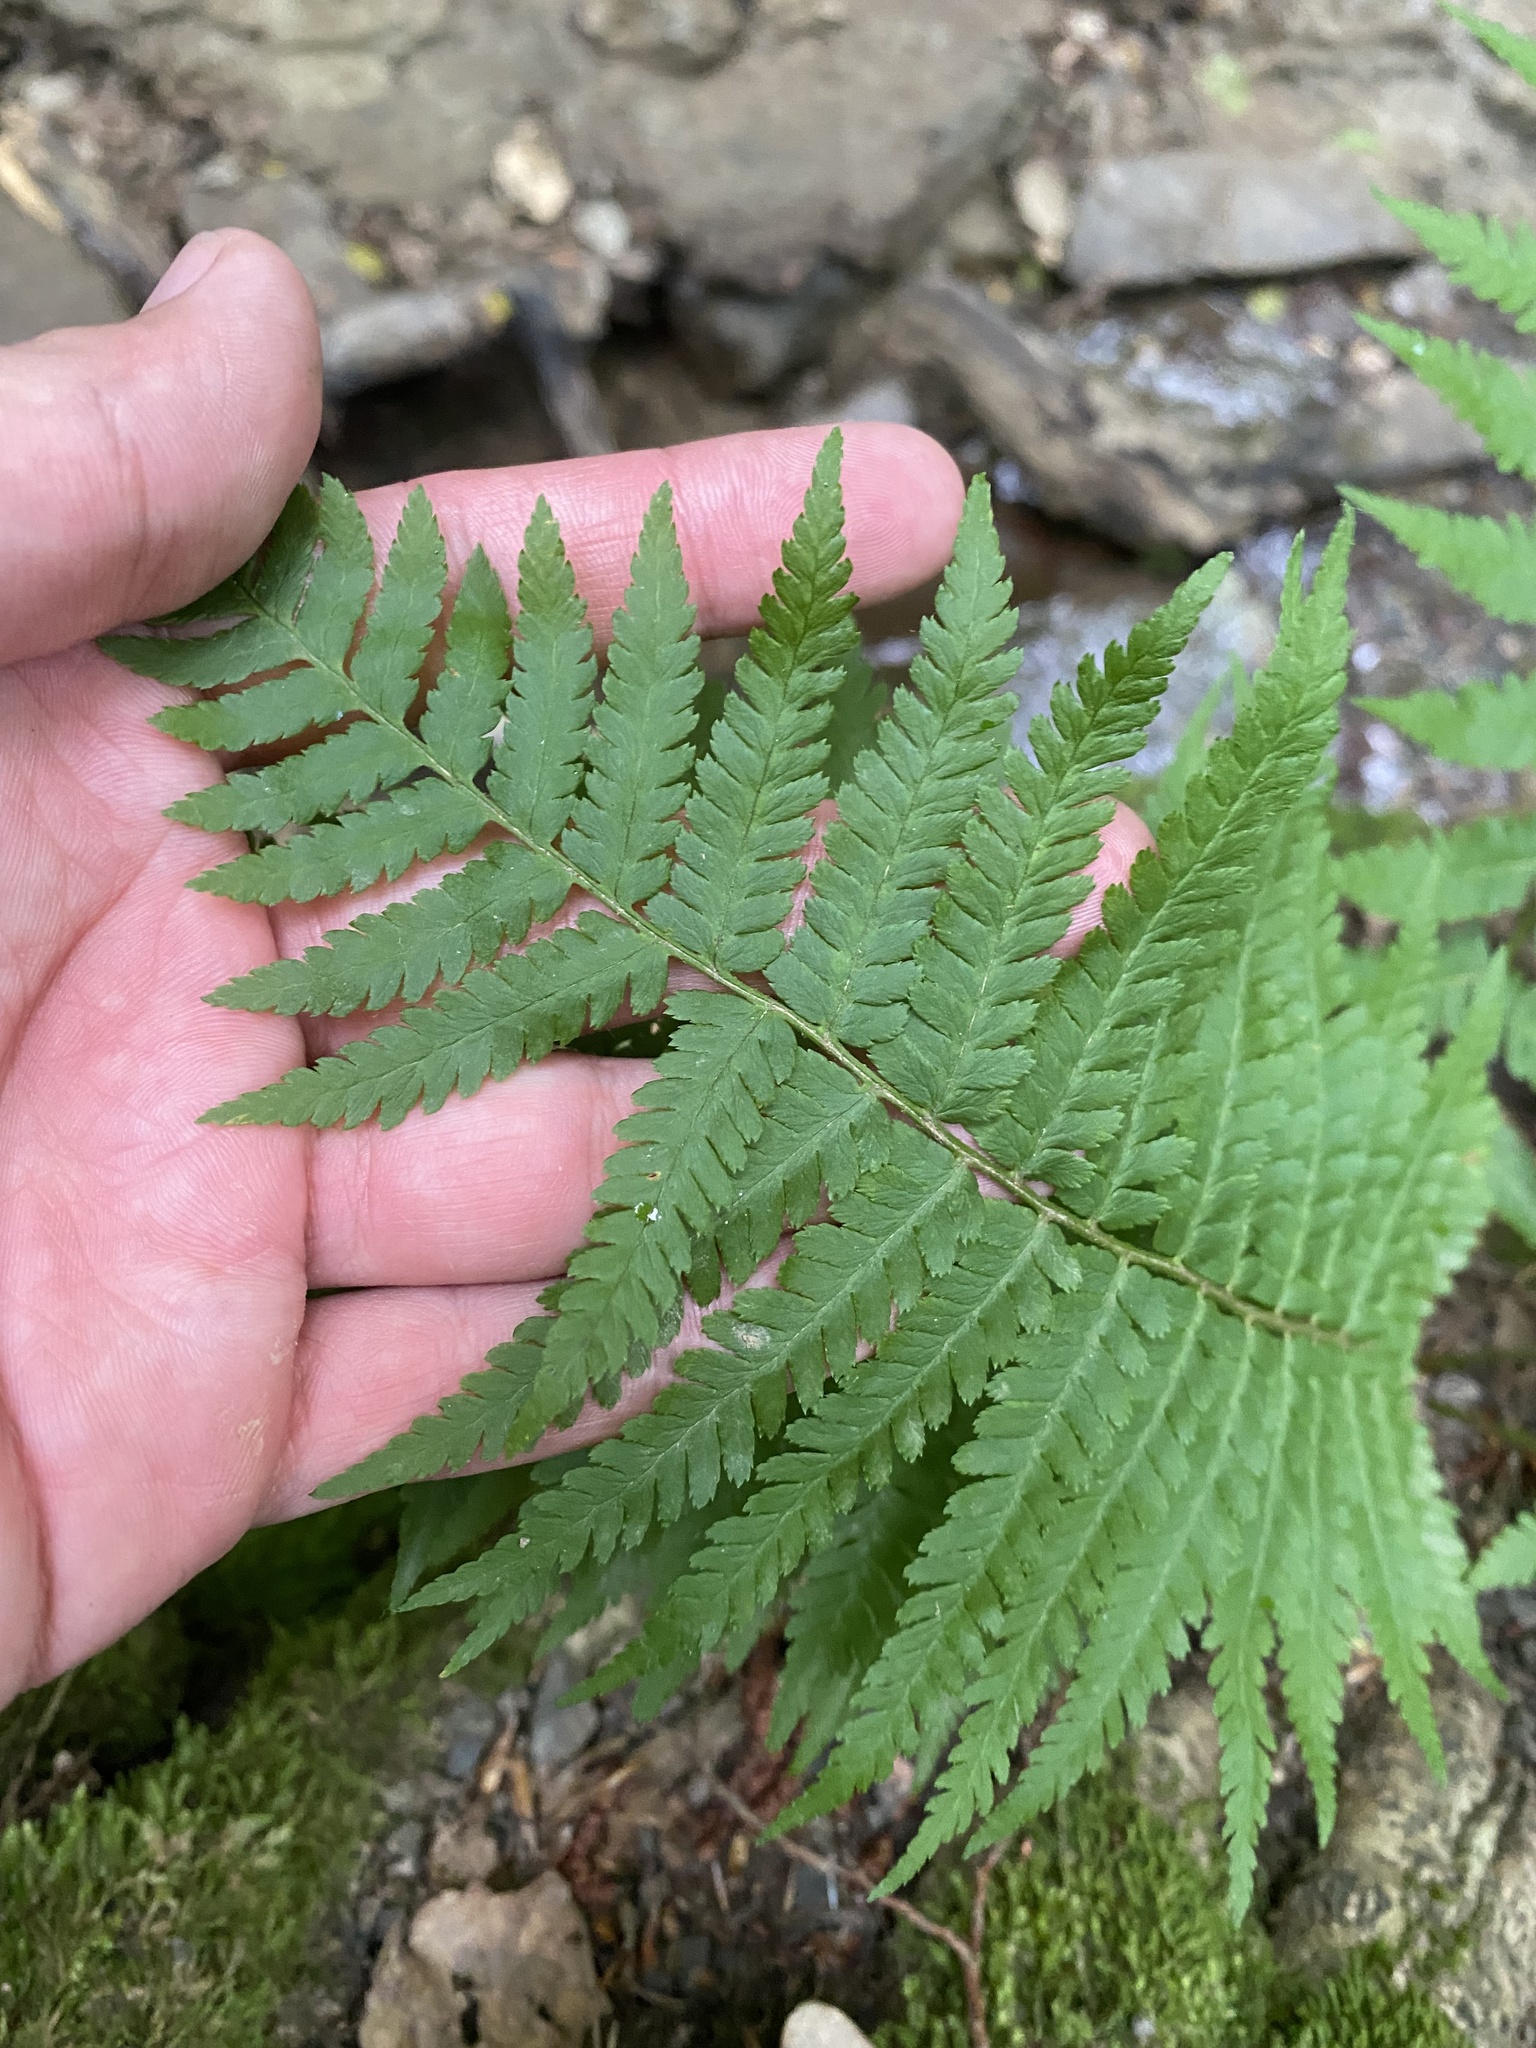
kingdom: Plantae
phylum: Tracheophyta
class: Polypodiopsida
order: Polypodiales
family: Dryopteridaceae
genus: Dryopteris
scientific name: Dryopteris filix-mas
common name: Male fern
